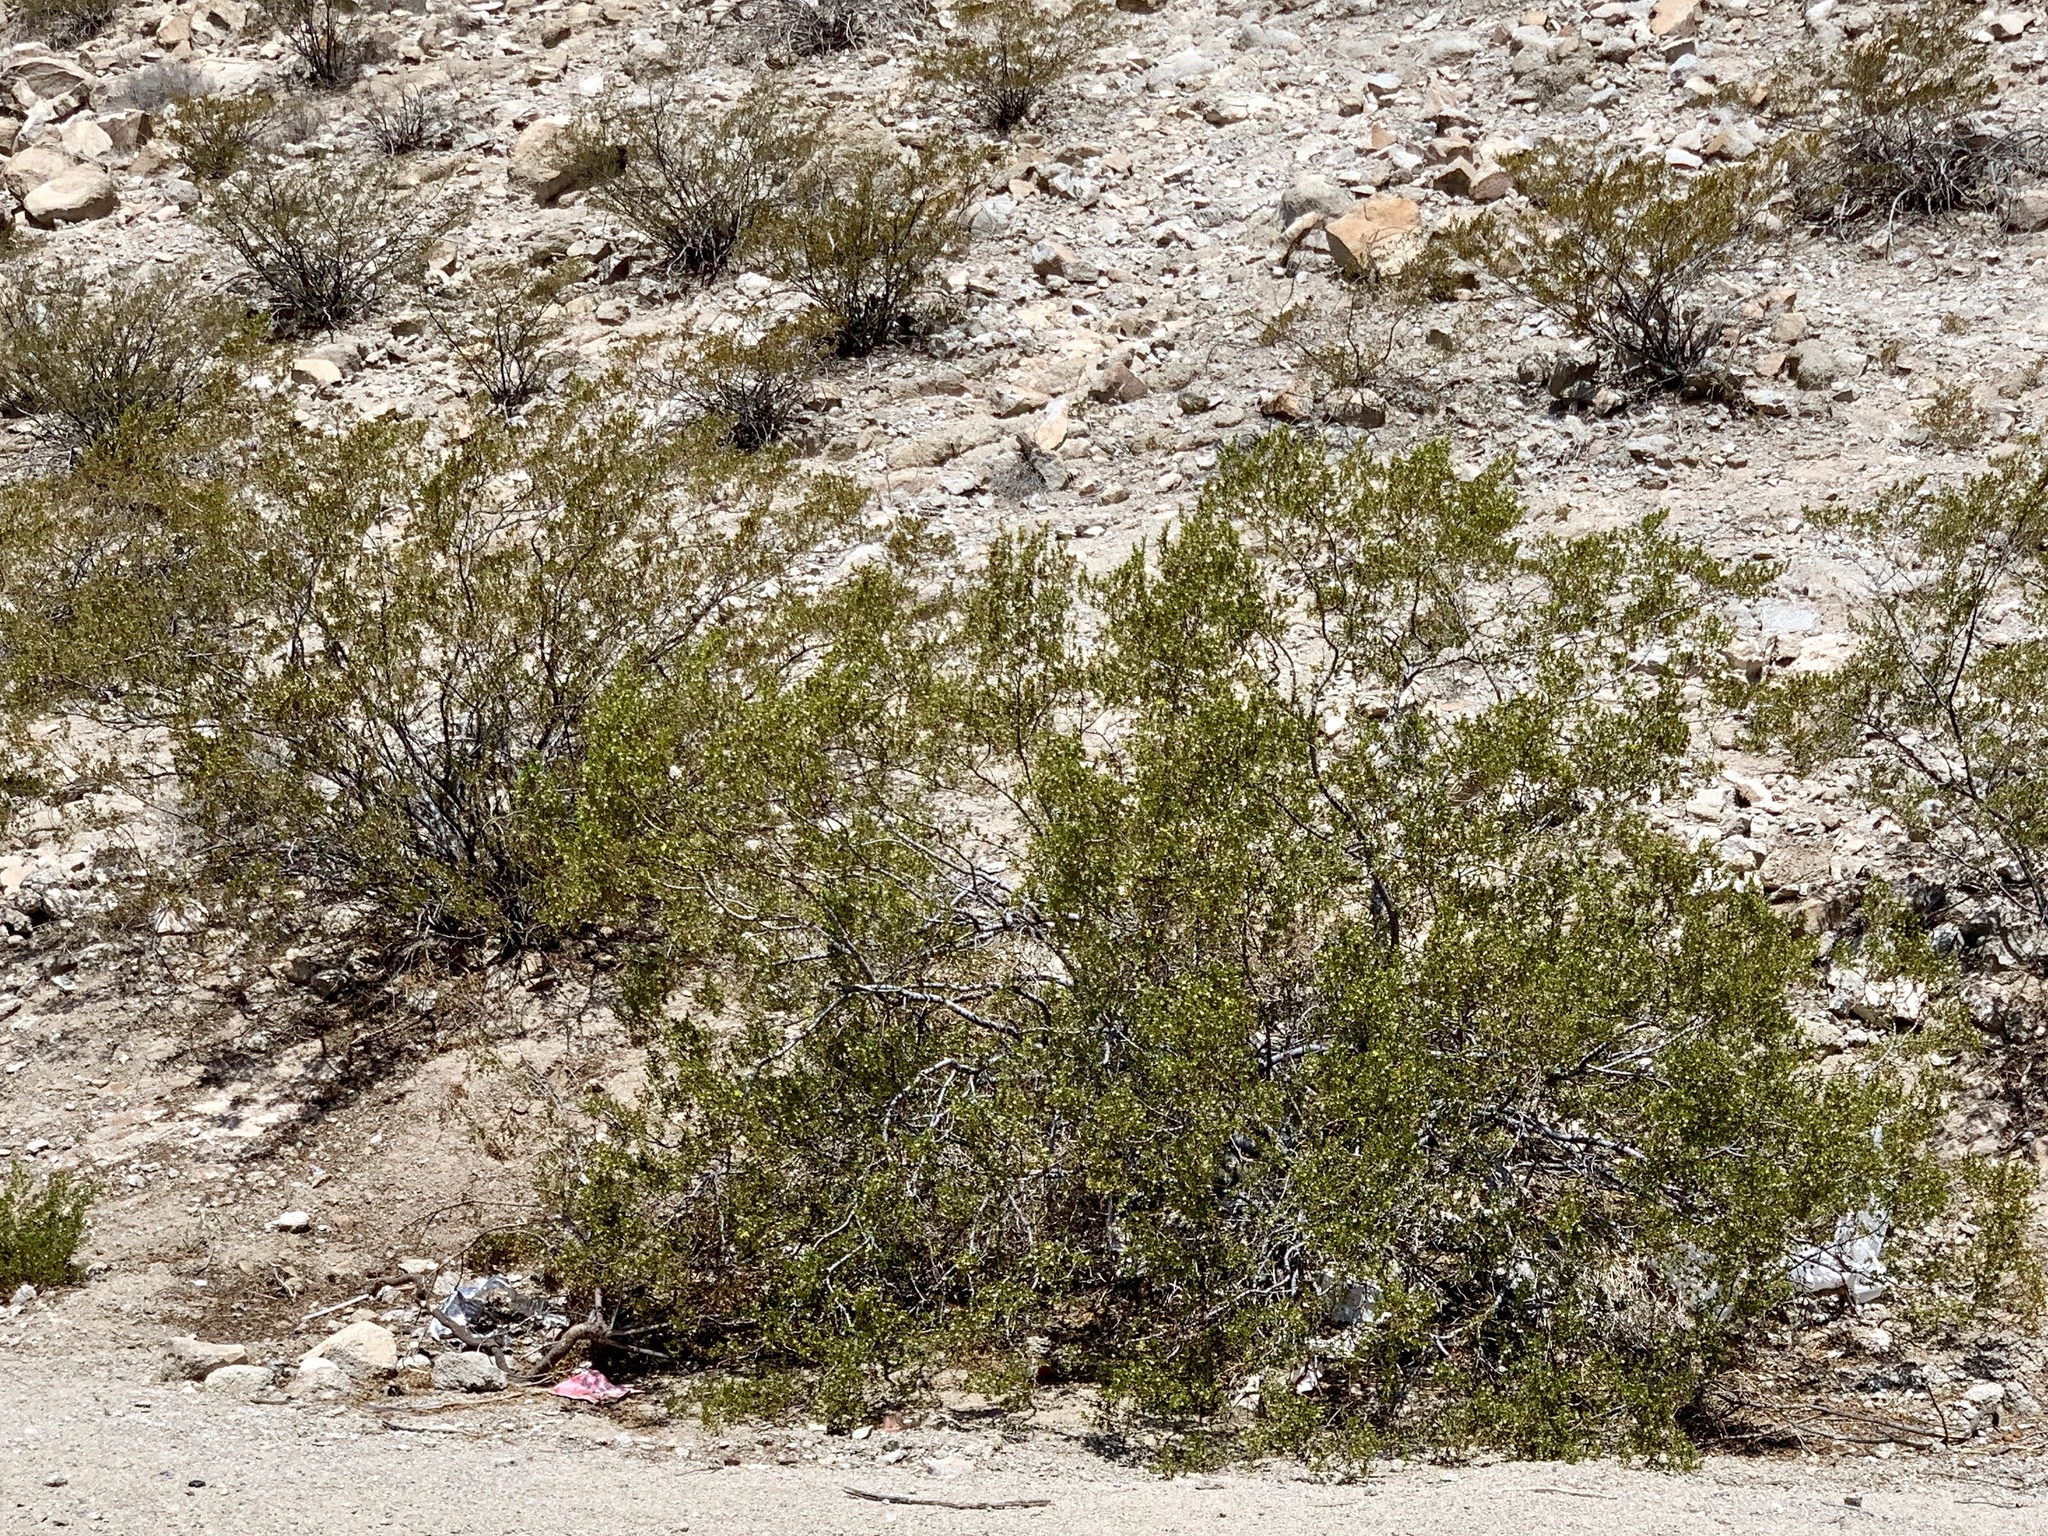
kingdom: Plantae
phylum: Tracheophyta
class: Magnoliopsida
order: Zygophyllales
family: Zygophyllaceae
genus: Larrea
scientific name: Larrea tridentata
